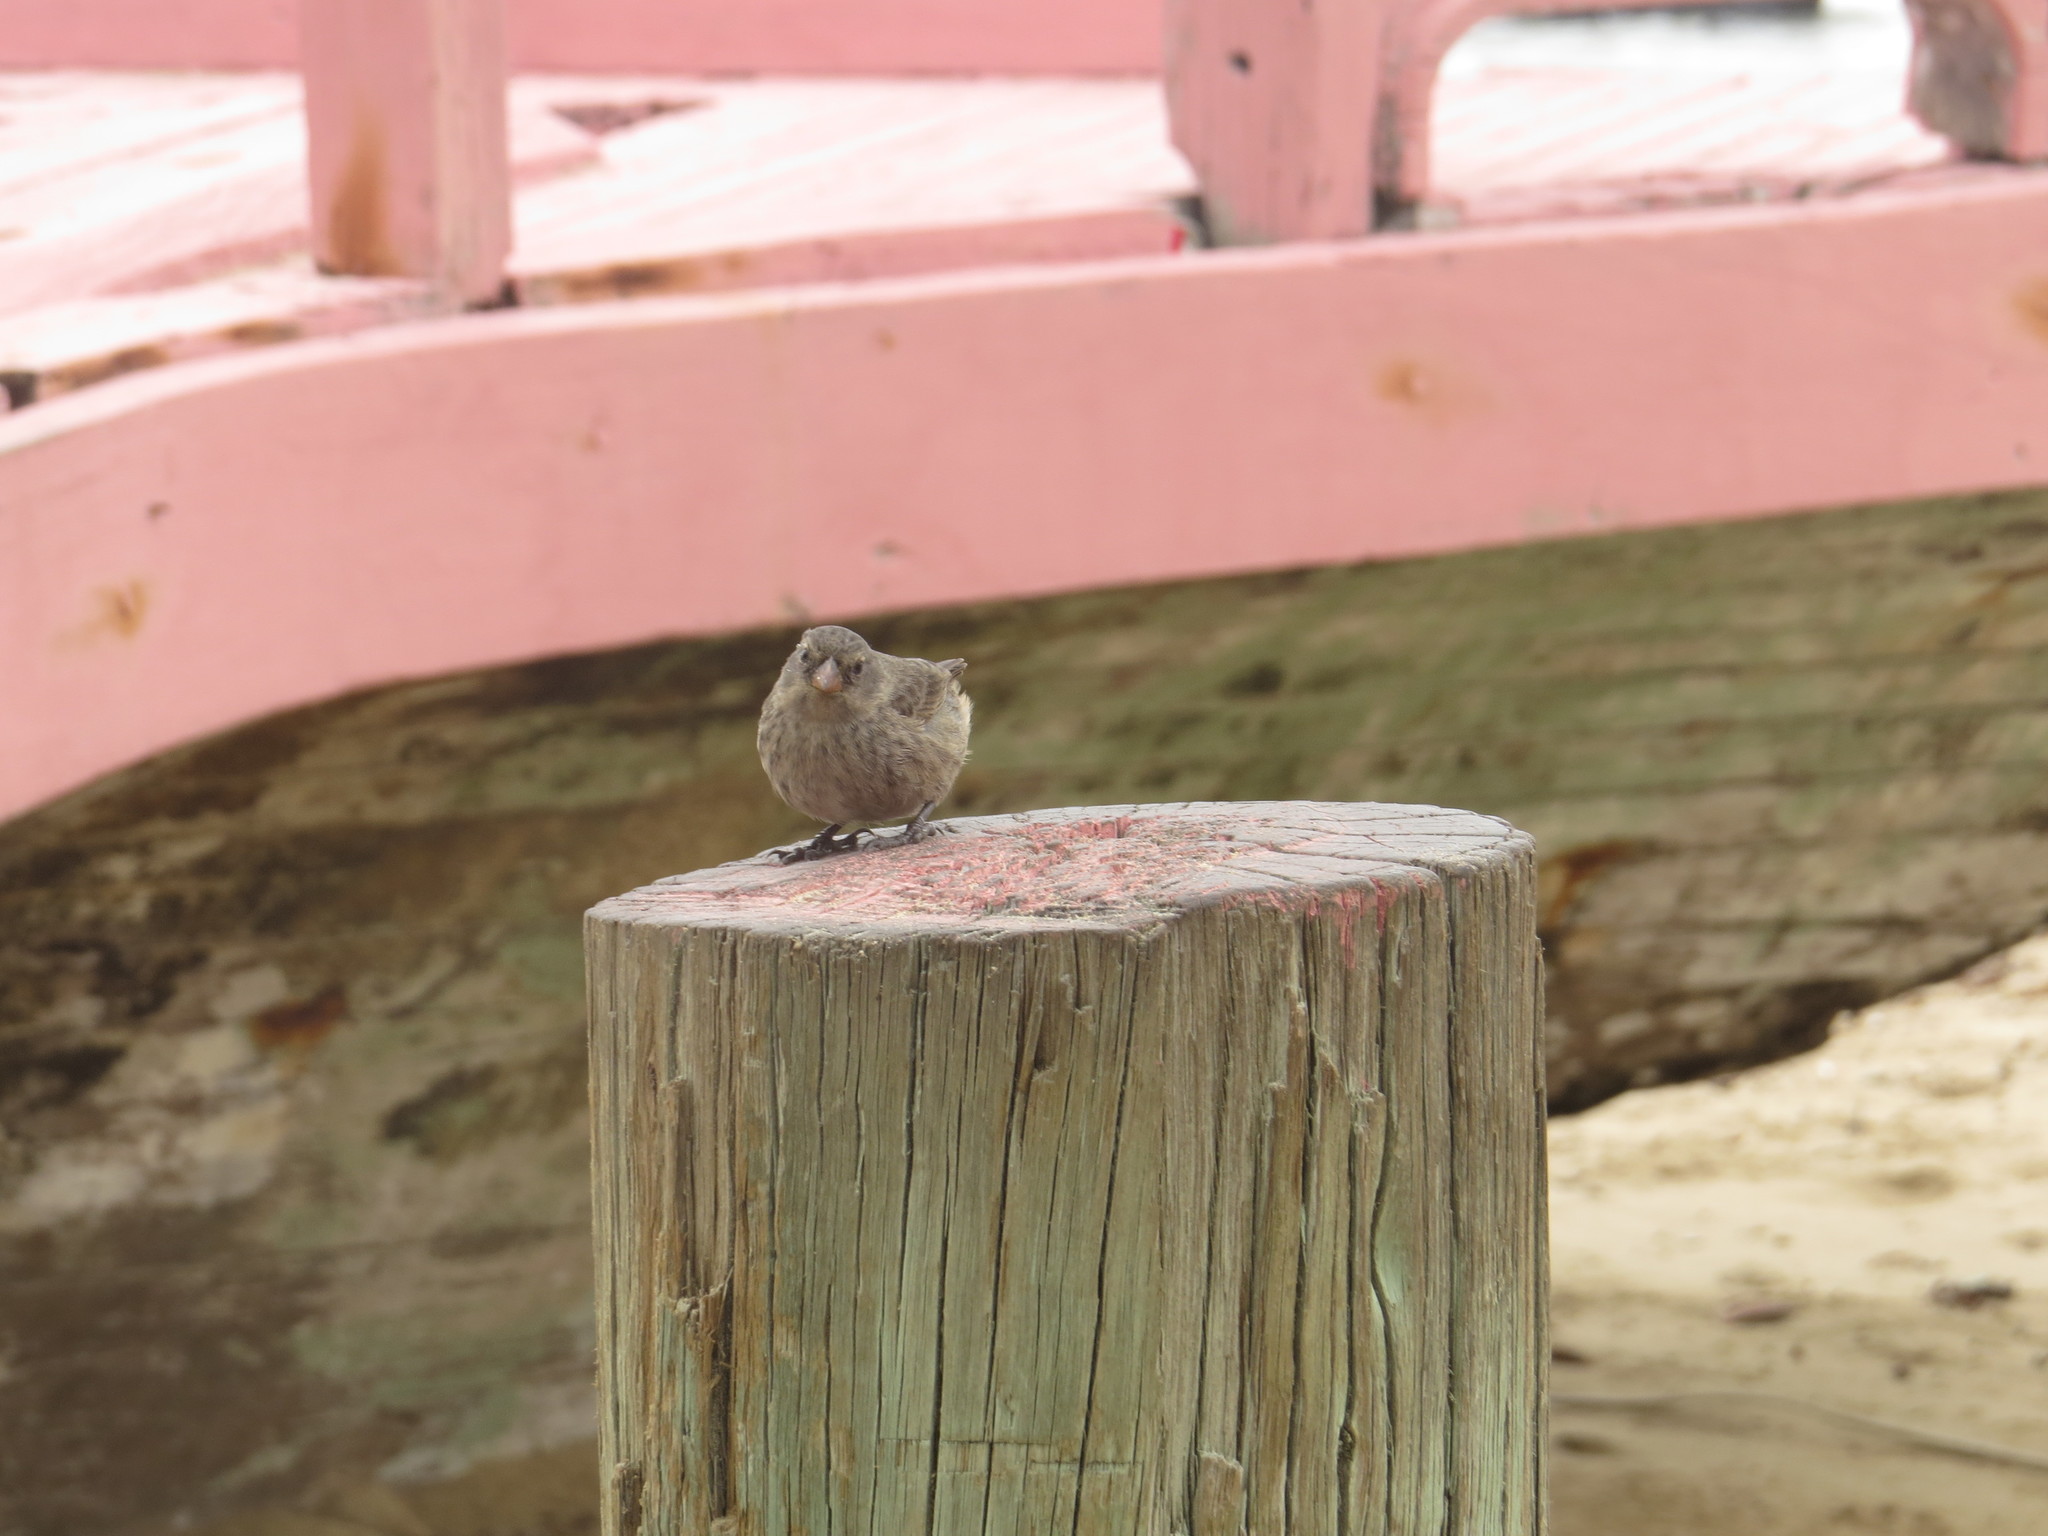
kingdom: Animalia
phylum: Chordata
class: Aves
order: Passeriformes
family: Thraupidae
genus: Geospiza
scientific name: Geospiza fuliginosa
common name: Small ground finch
